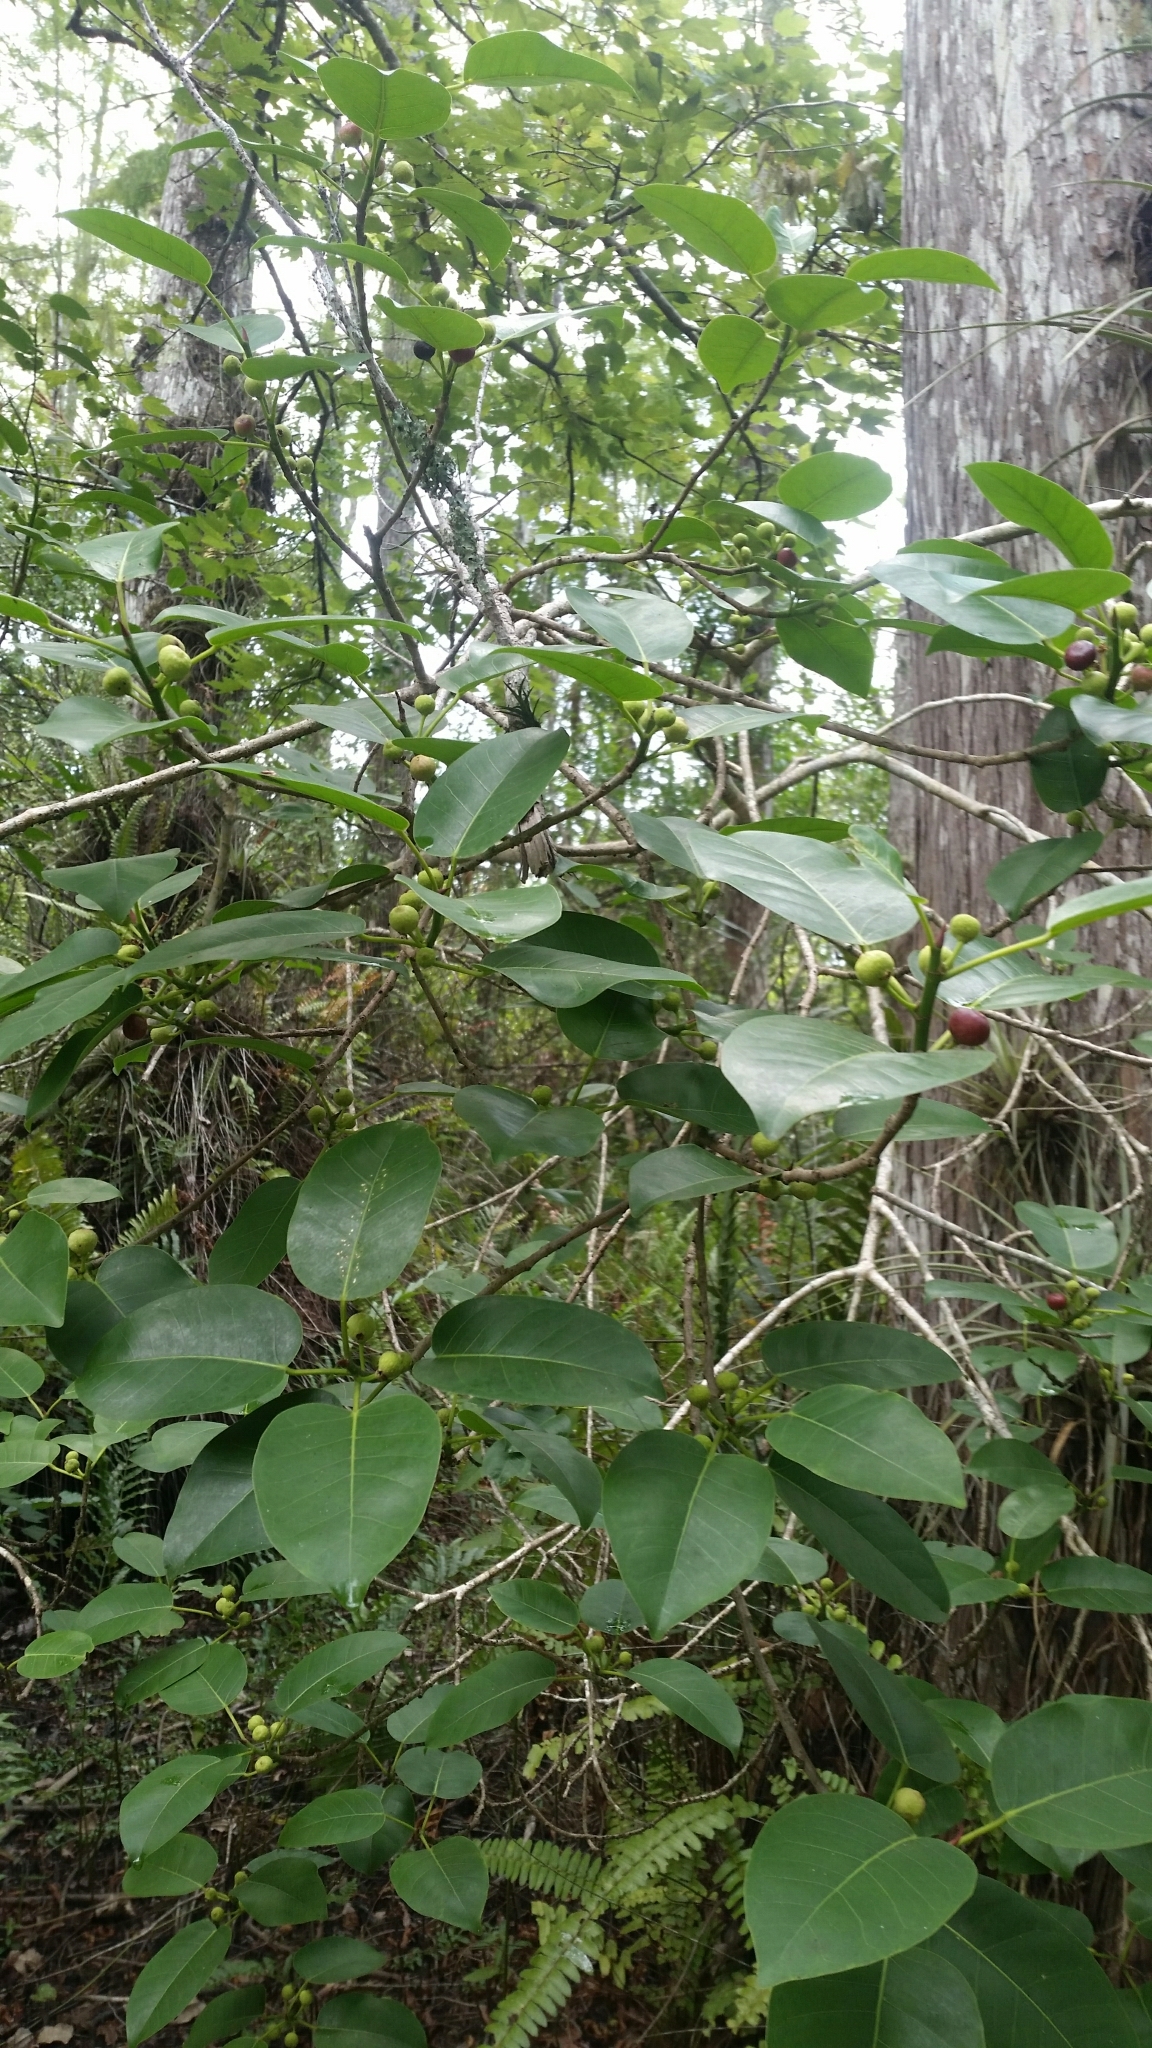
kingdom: Plantae
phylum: Tracheophyta
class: Magnoliopsida
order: Rosales
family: Moraceae
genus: Ficus
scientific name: Ficus citrifolia
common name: Strangler fig
